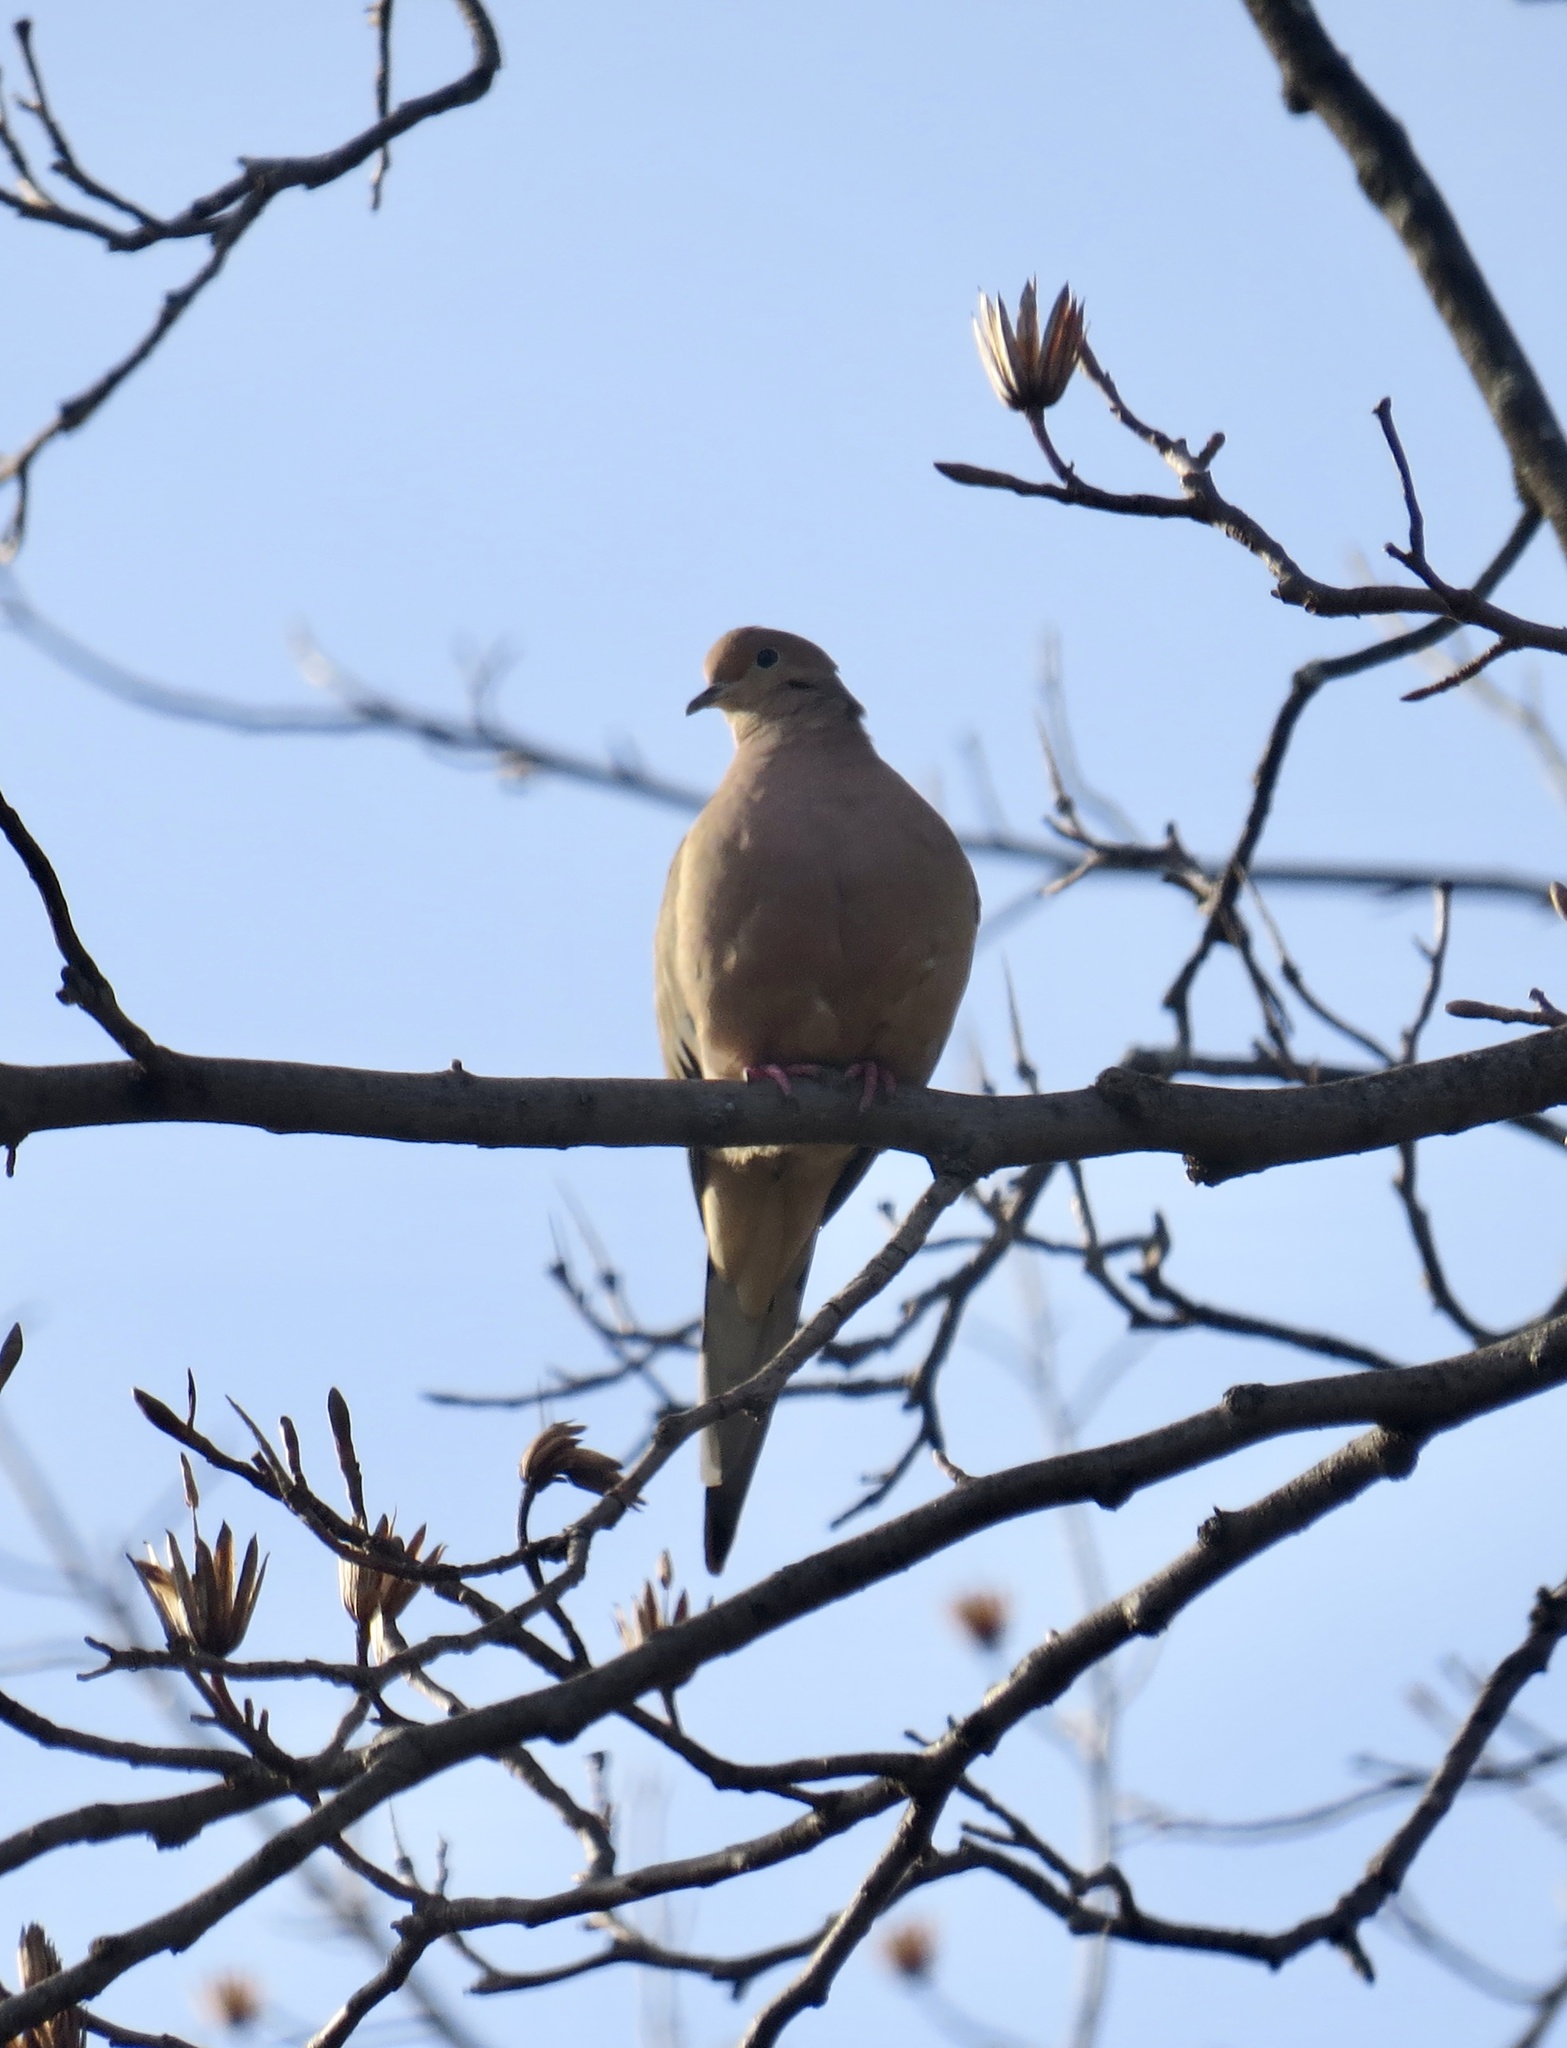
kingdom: Animalia
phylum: Chordata
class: Aves
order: Columbiformes
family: Columbidae
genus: Zenaida
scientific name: Zenaida macroura
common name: Mourning dove
